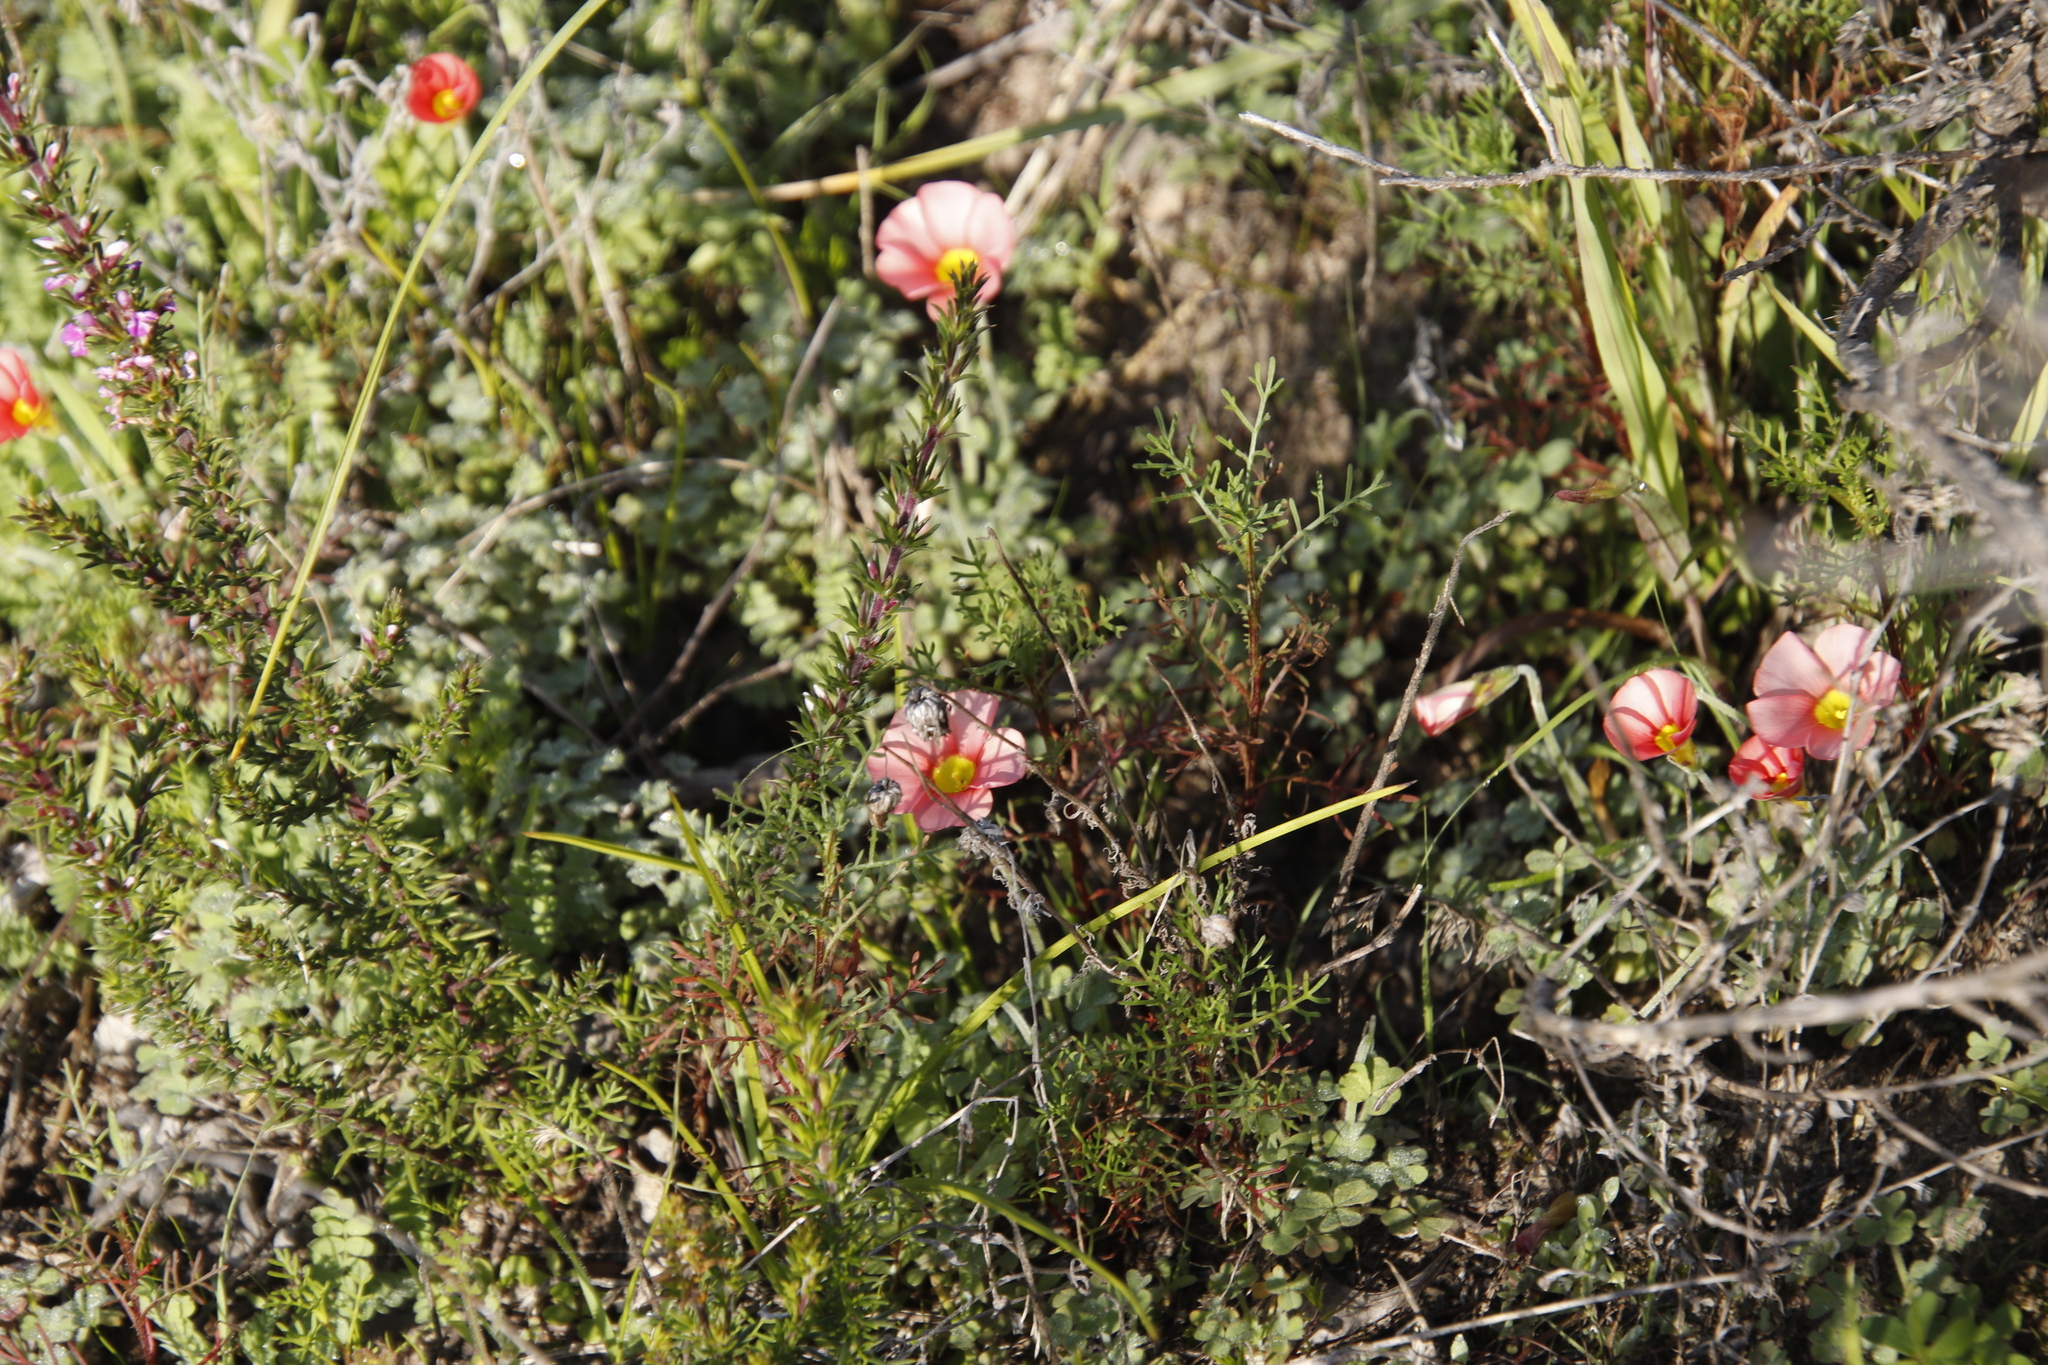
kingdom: Plantae
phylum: Tracheophyta
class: Magnoliopsida
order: Oxalidales
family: Oxalidaceae
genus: Oxalis
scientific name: Oxalis obtusa
